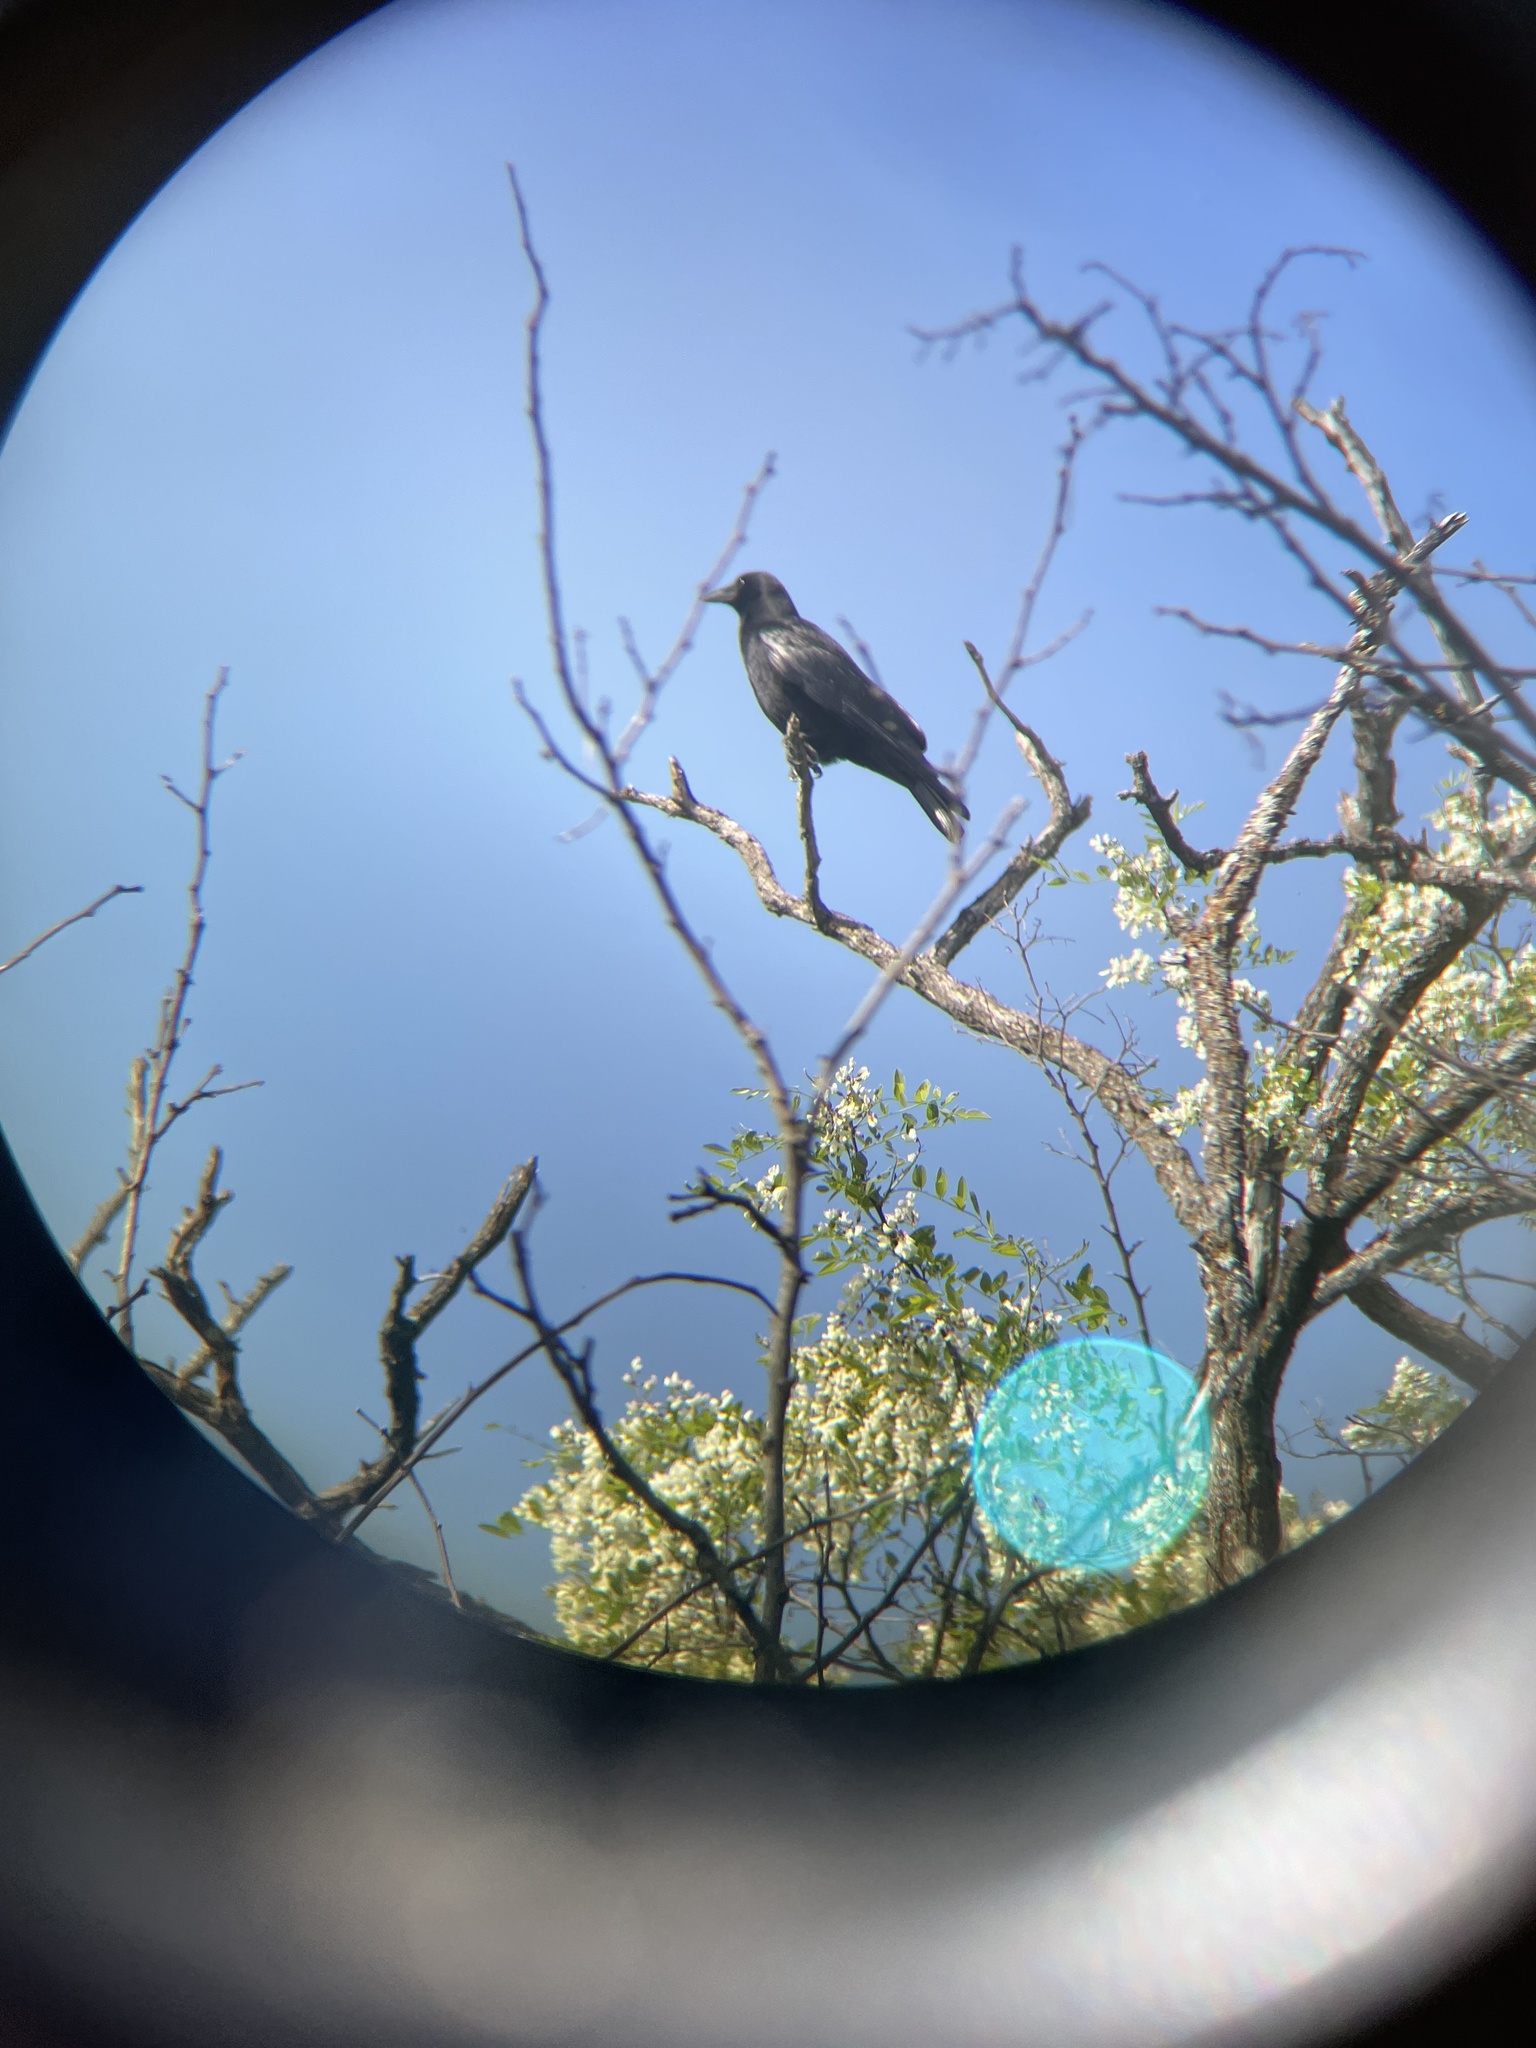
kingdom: Animalia
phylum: Chordata
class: Aves
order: Passeriformes
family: Corvidae
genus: Corvus
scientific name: Corvus brachyrhynchos
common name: American crow
